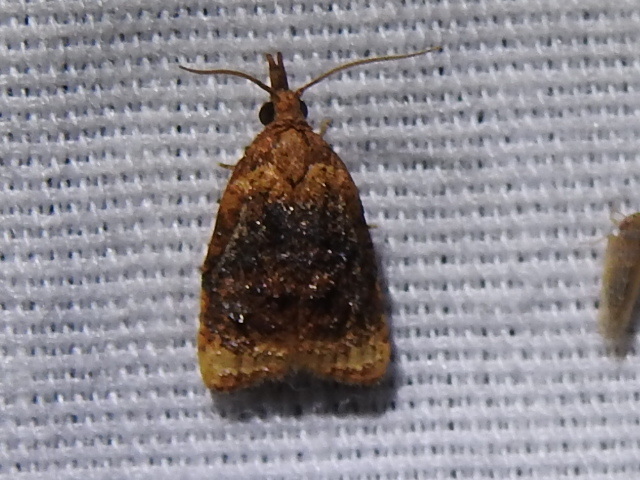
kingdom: Animalia
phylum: Arthropoda
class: Insecta
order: Lepidoptera
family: Tortricidae
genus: Platynota
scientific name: Platynota flavedana
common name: Black-shaded platynota moth
